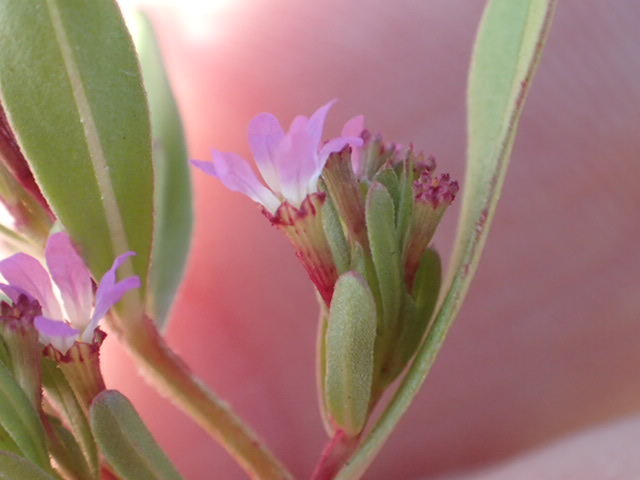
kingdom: Plantae
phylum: Tracheophyta
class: Magnoliopsida
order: Myrtales
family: Lythraceae
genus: Lythrum
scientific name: Lythrum tribracteatum
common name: Threebract loosestrife
